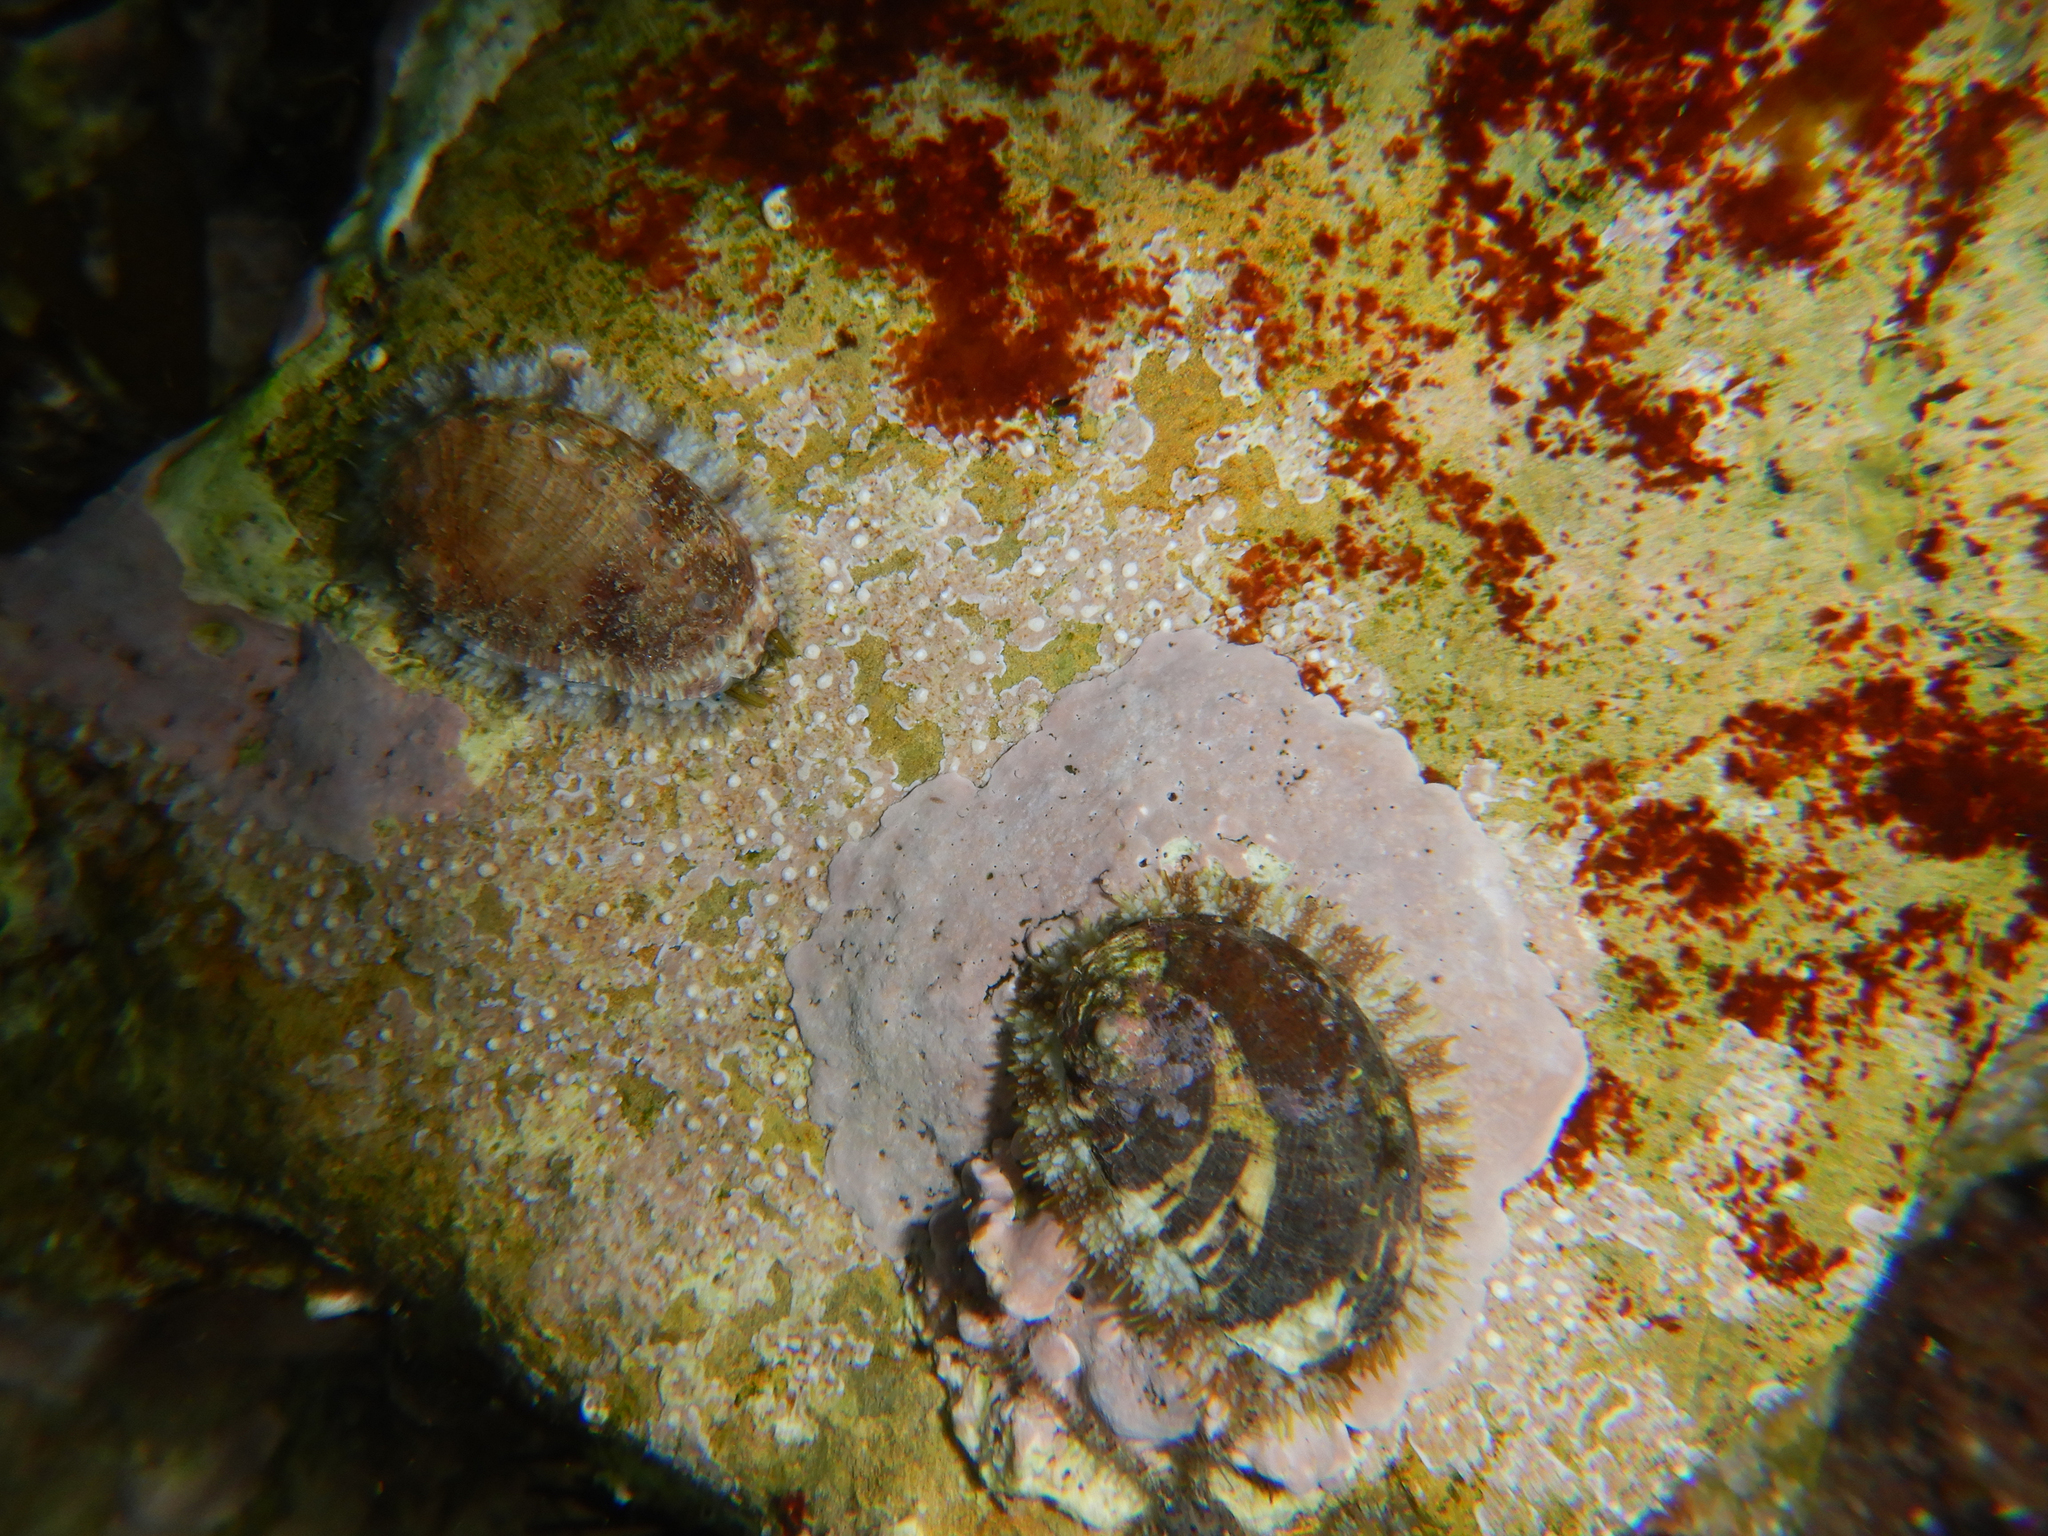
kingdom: Animalia
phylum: Mollusca
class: Gastropoda
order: Lepetellida
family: Haliotidae
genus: Haliotis
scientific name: Haliotis tuberculata
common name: Green ormer
